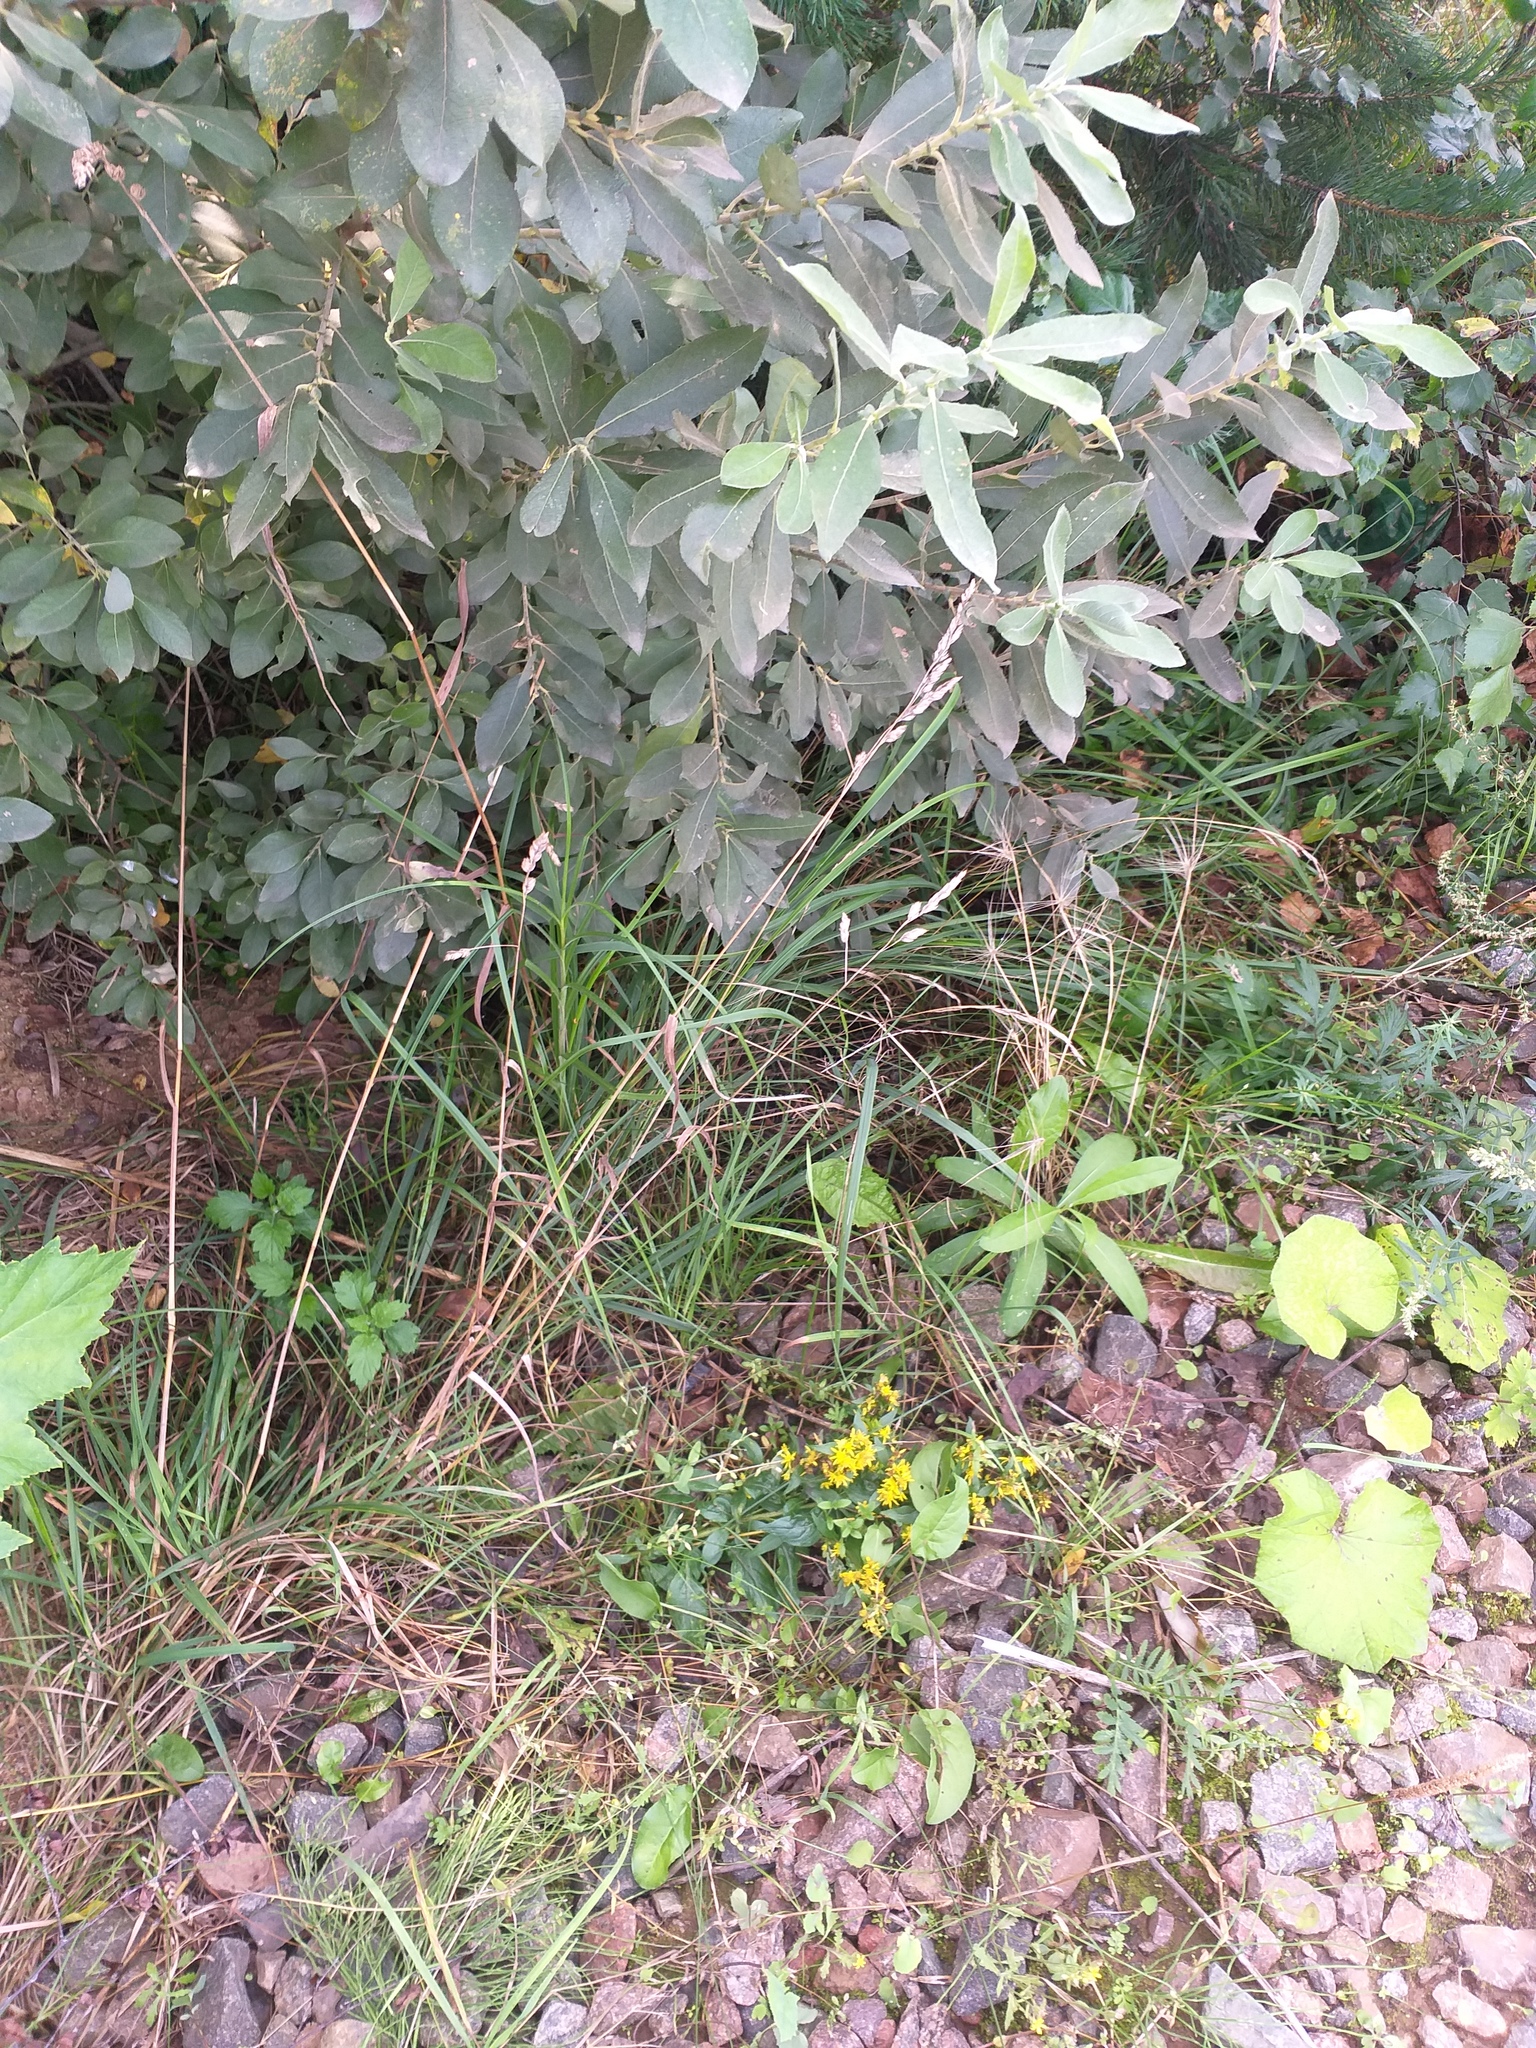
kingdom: Plantae
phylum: Tracheophyta
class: Liliopsida
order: Poales
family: Poaceae
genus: Dactylis
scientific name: Dactylis glomerata
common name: Orchardgrass
